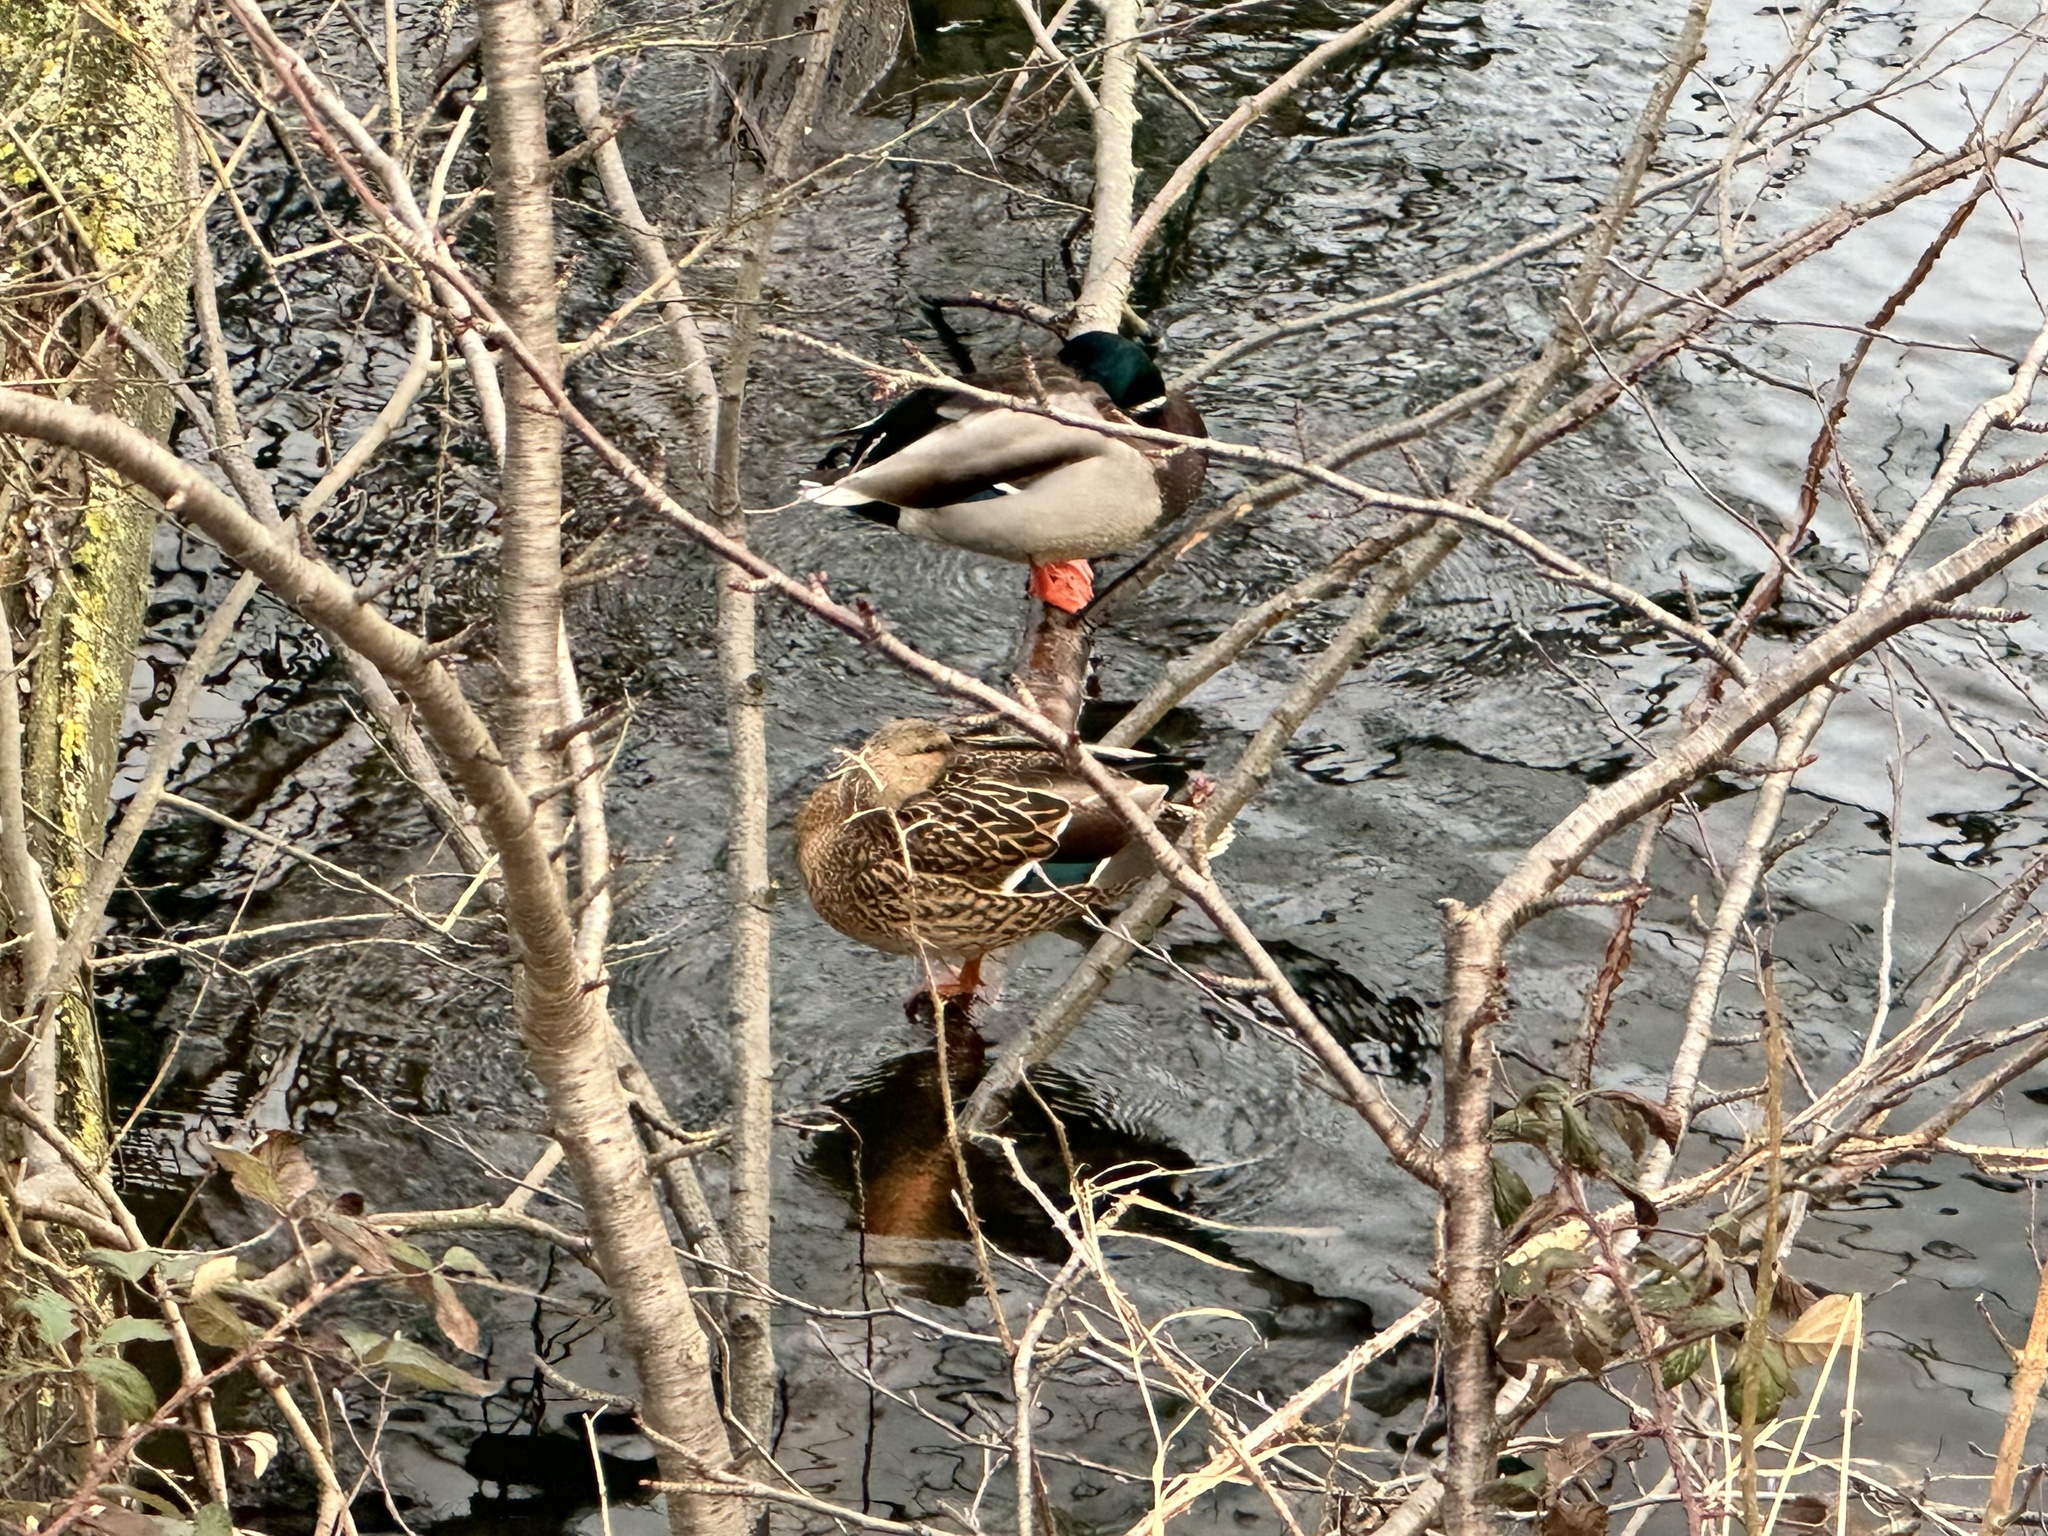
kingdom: Animalia
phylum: Chordata
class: Aves
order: Anseriformes
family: Anatidae
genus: Anas
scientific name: Anas platyrhynchos
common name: Mallard
